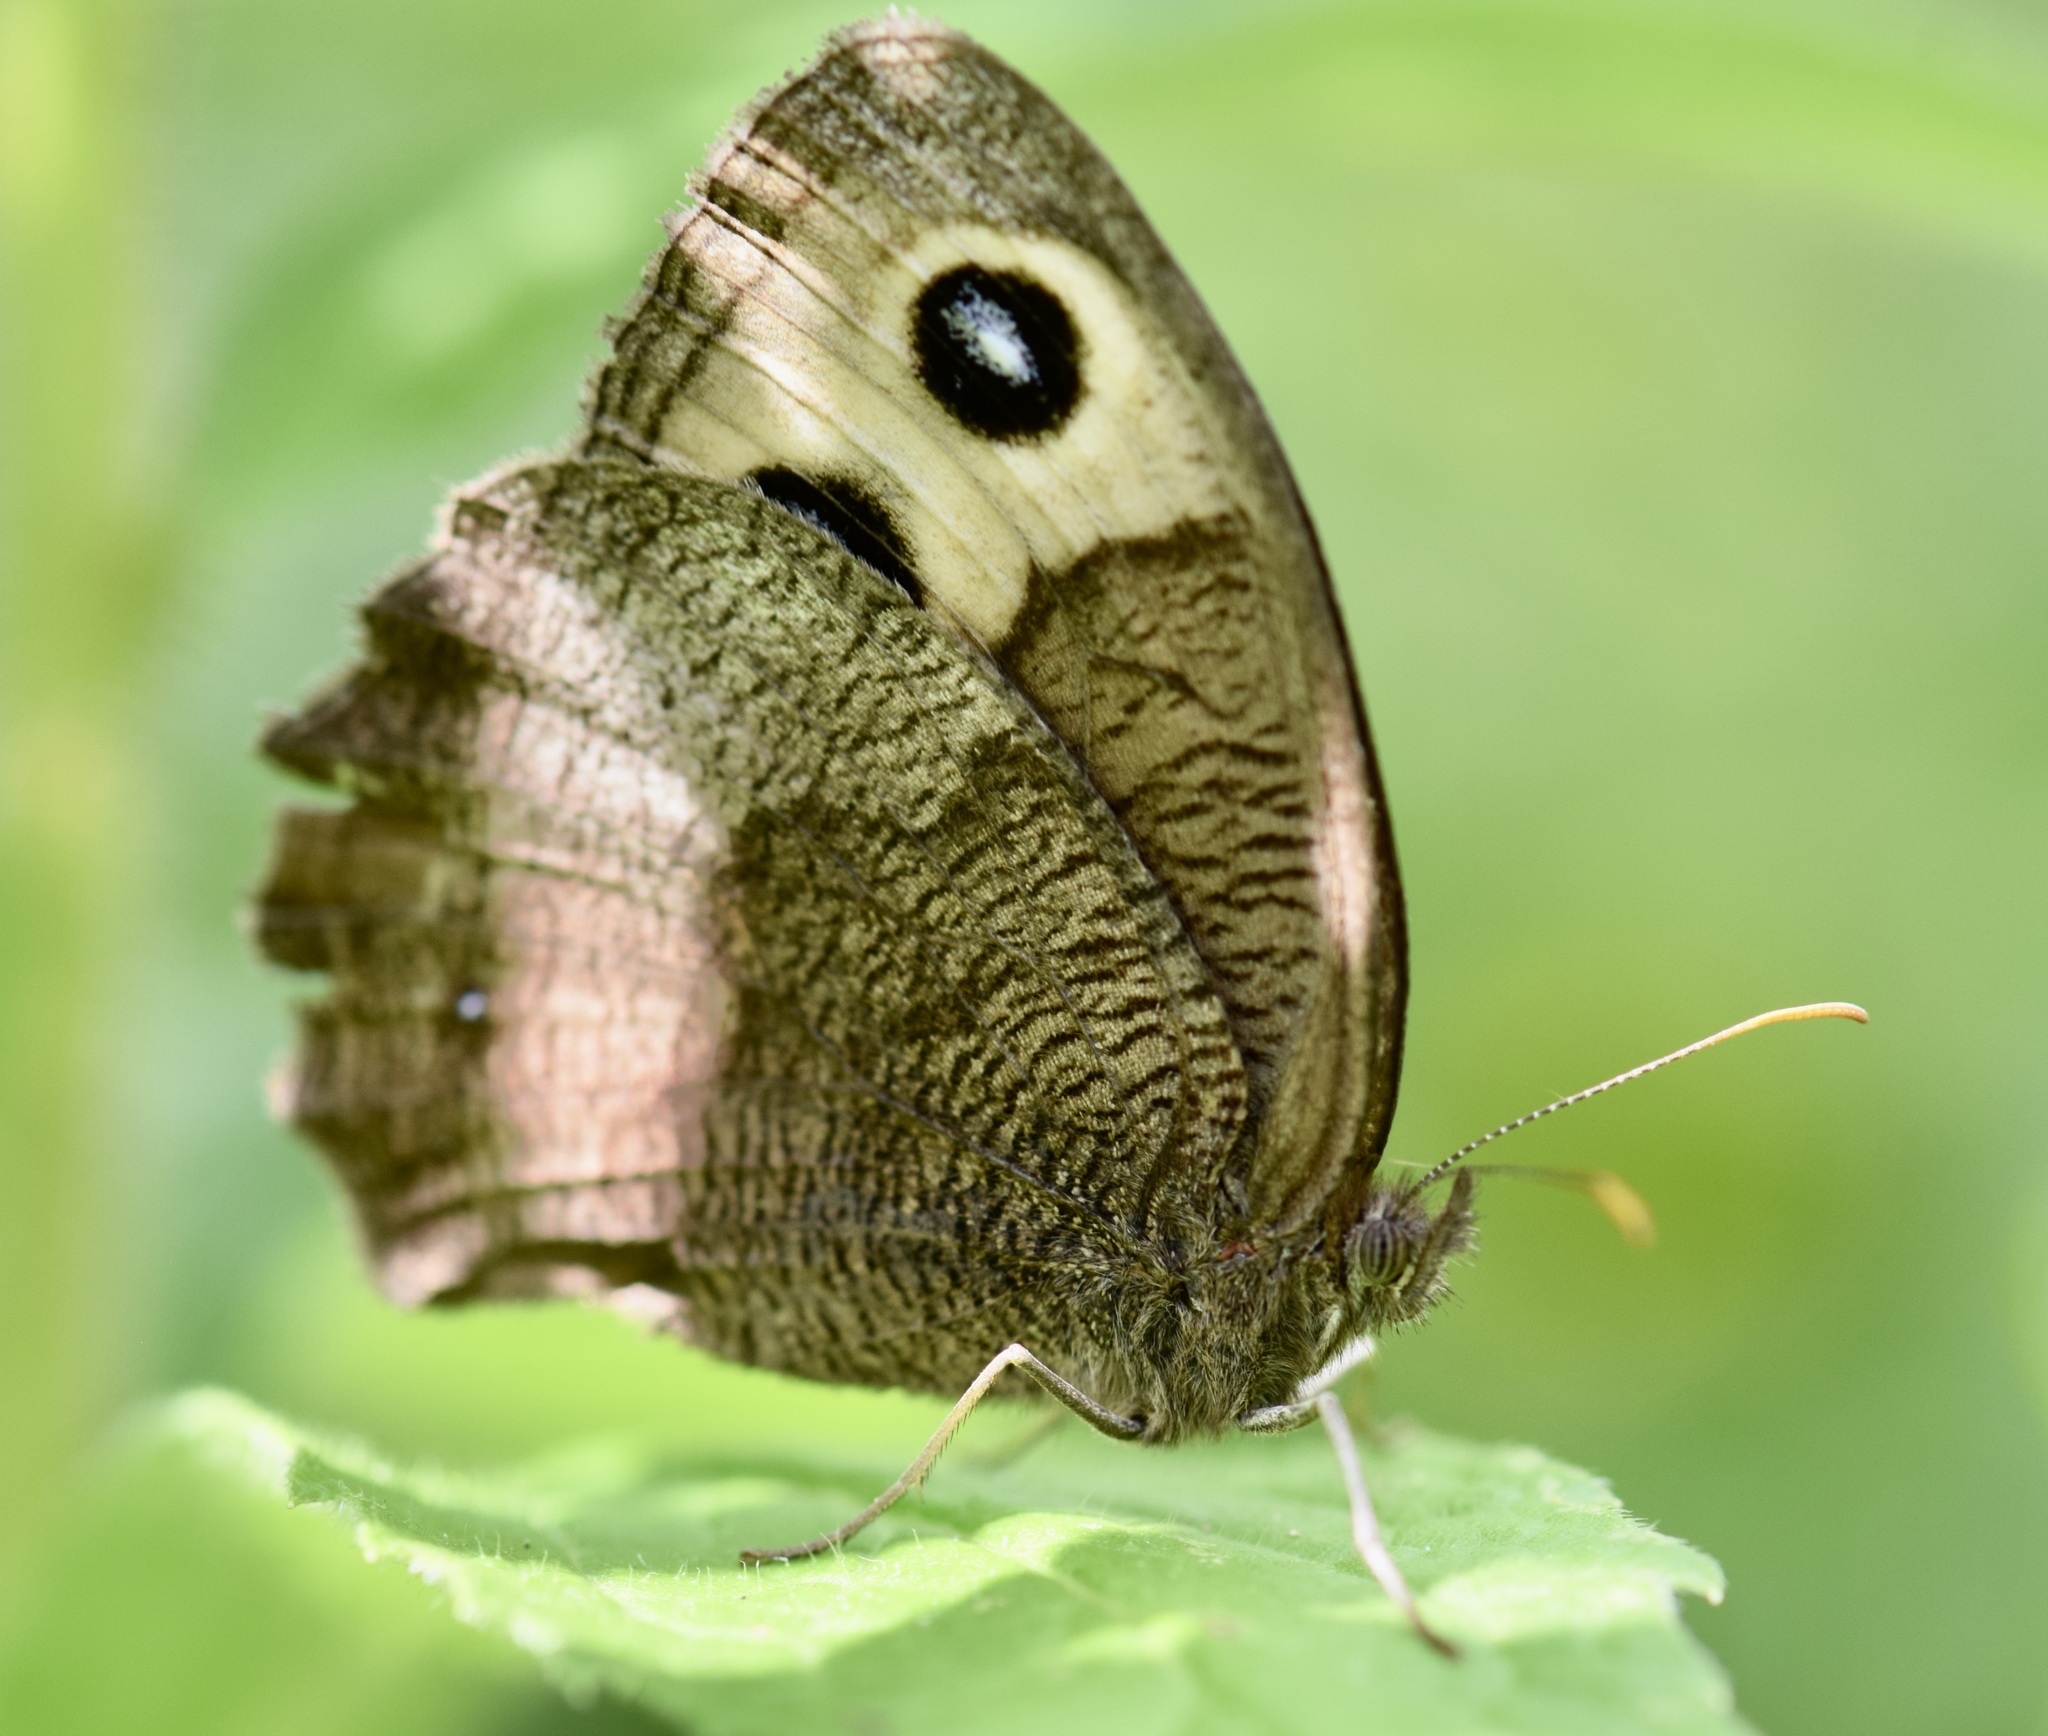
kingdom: Animalia
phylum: Arthropoda
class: Insecta
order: Lepidoptera
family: Nymphalidae
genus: Cercyonis
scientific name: Cercyonis pegala
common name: Common wood-nymph
